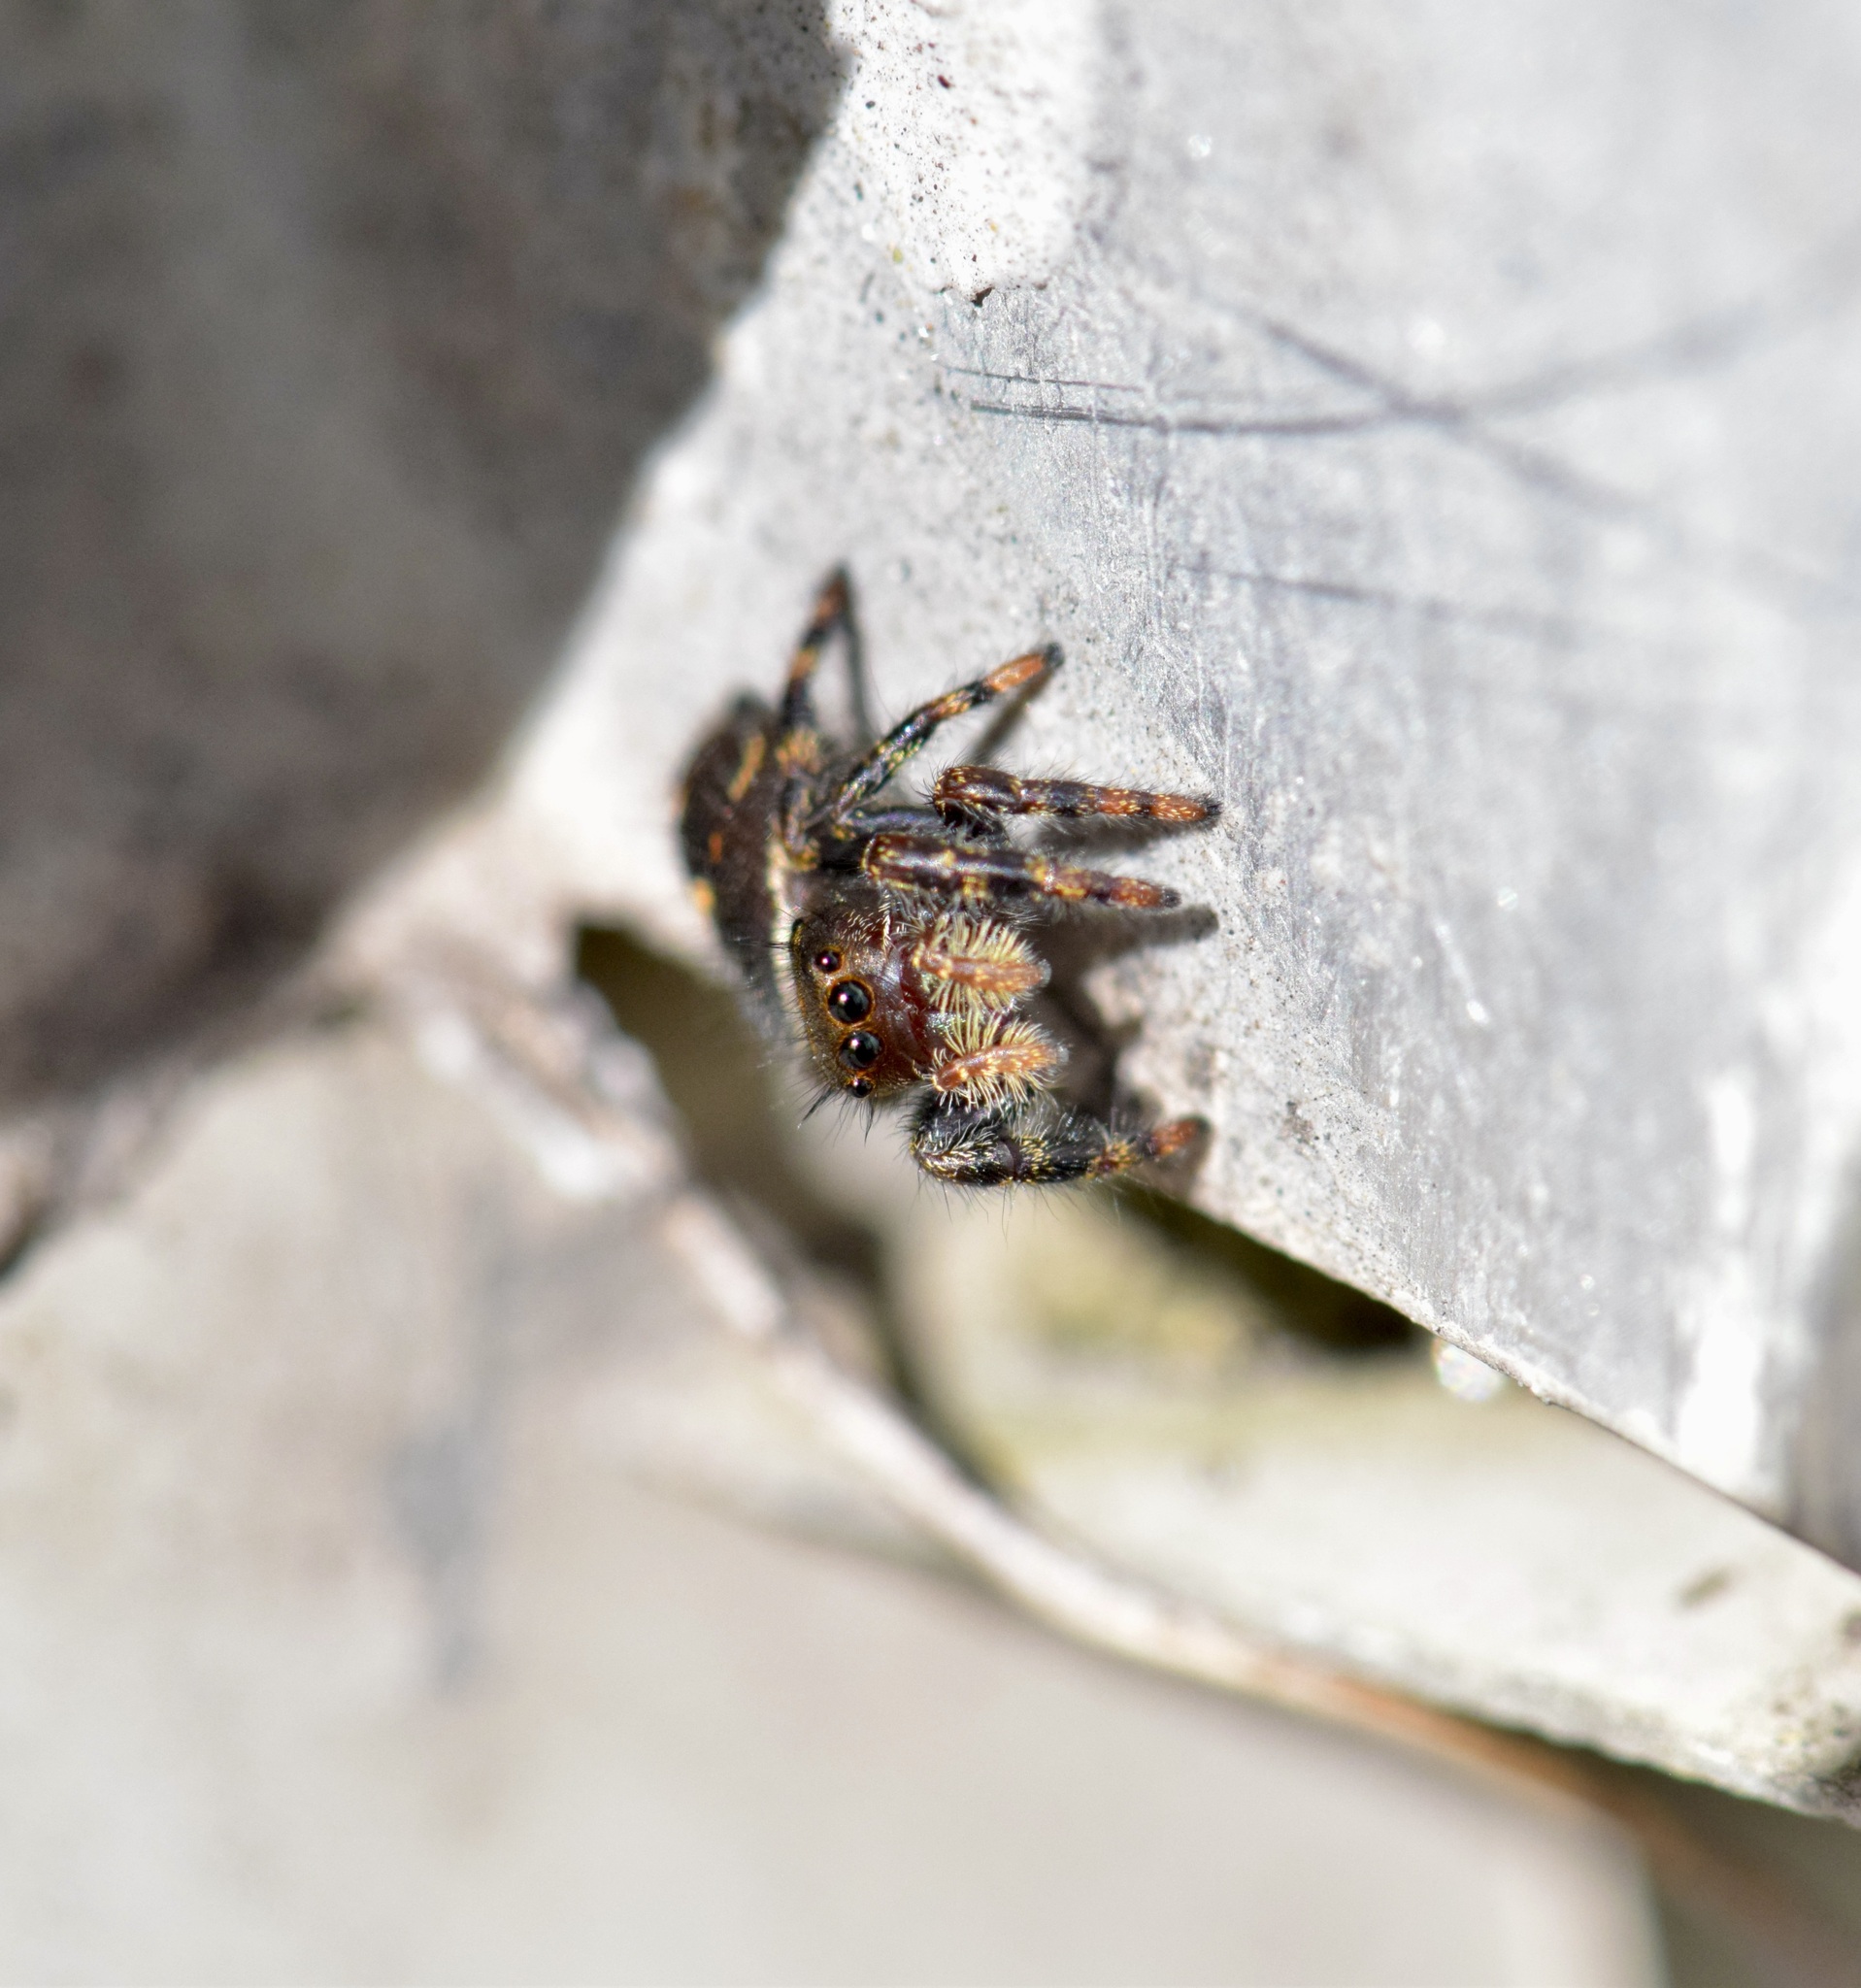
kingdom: Animalia
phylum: Arthropoda
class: Arachnida
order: Araneae
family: Salticidae
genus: Phidippus
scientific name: Phidippus audax
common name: Bold jumper
